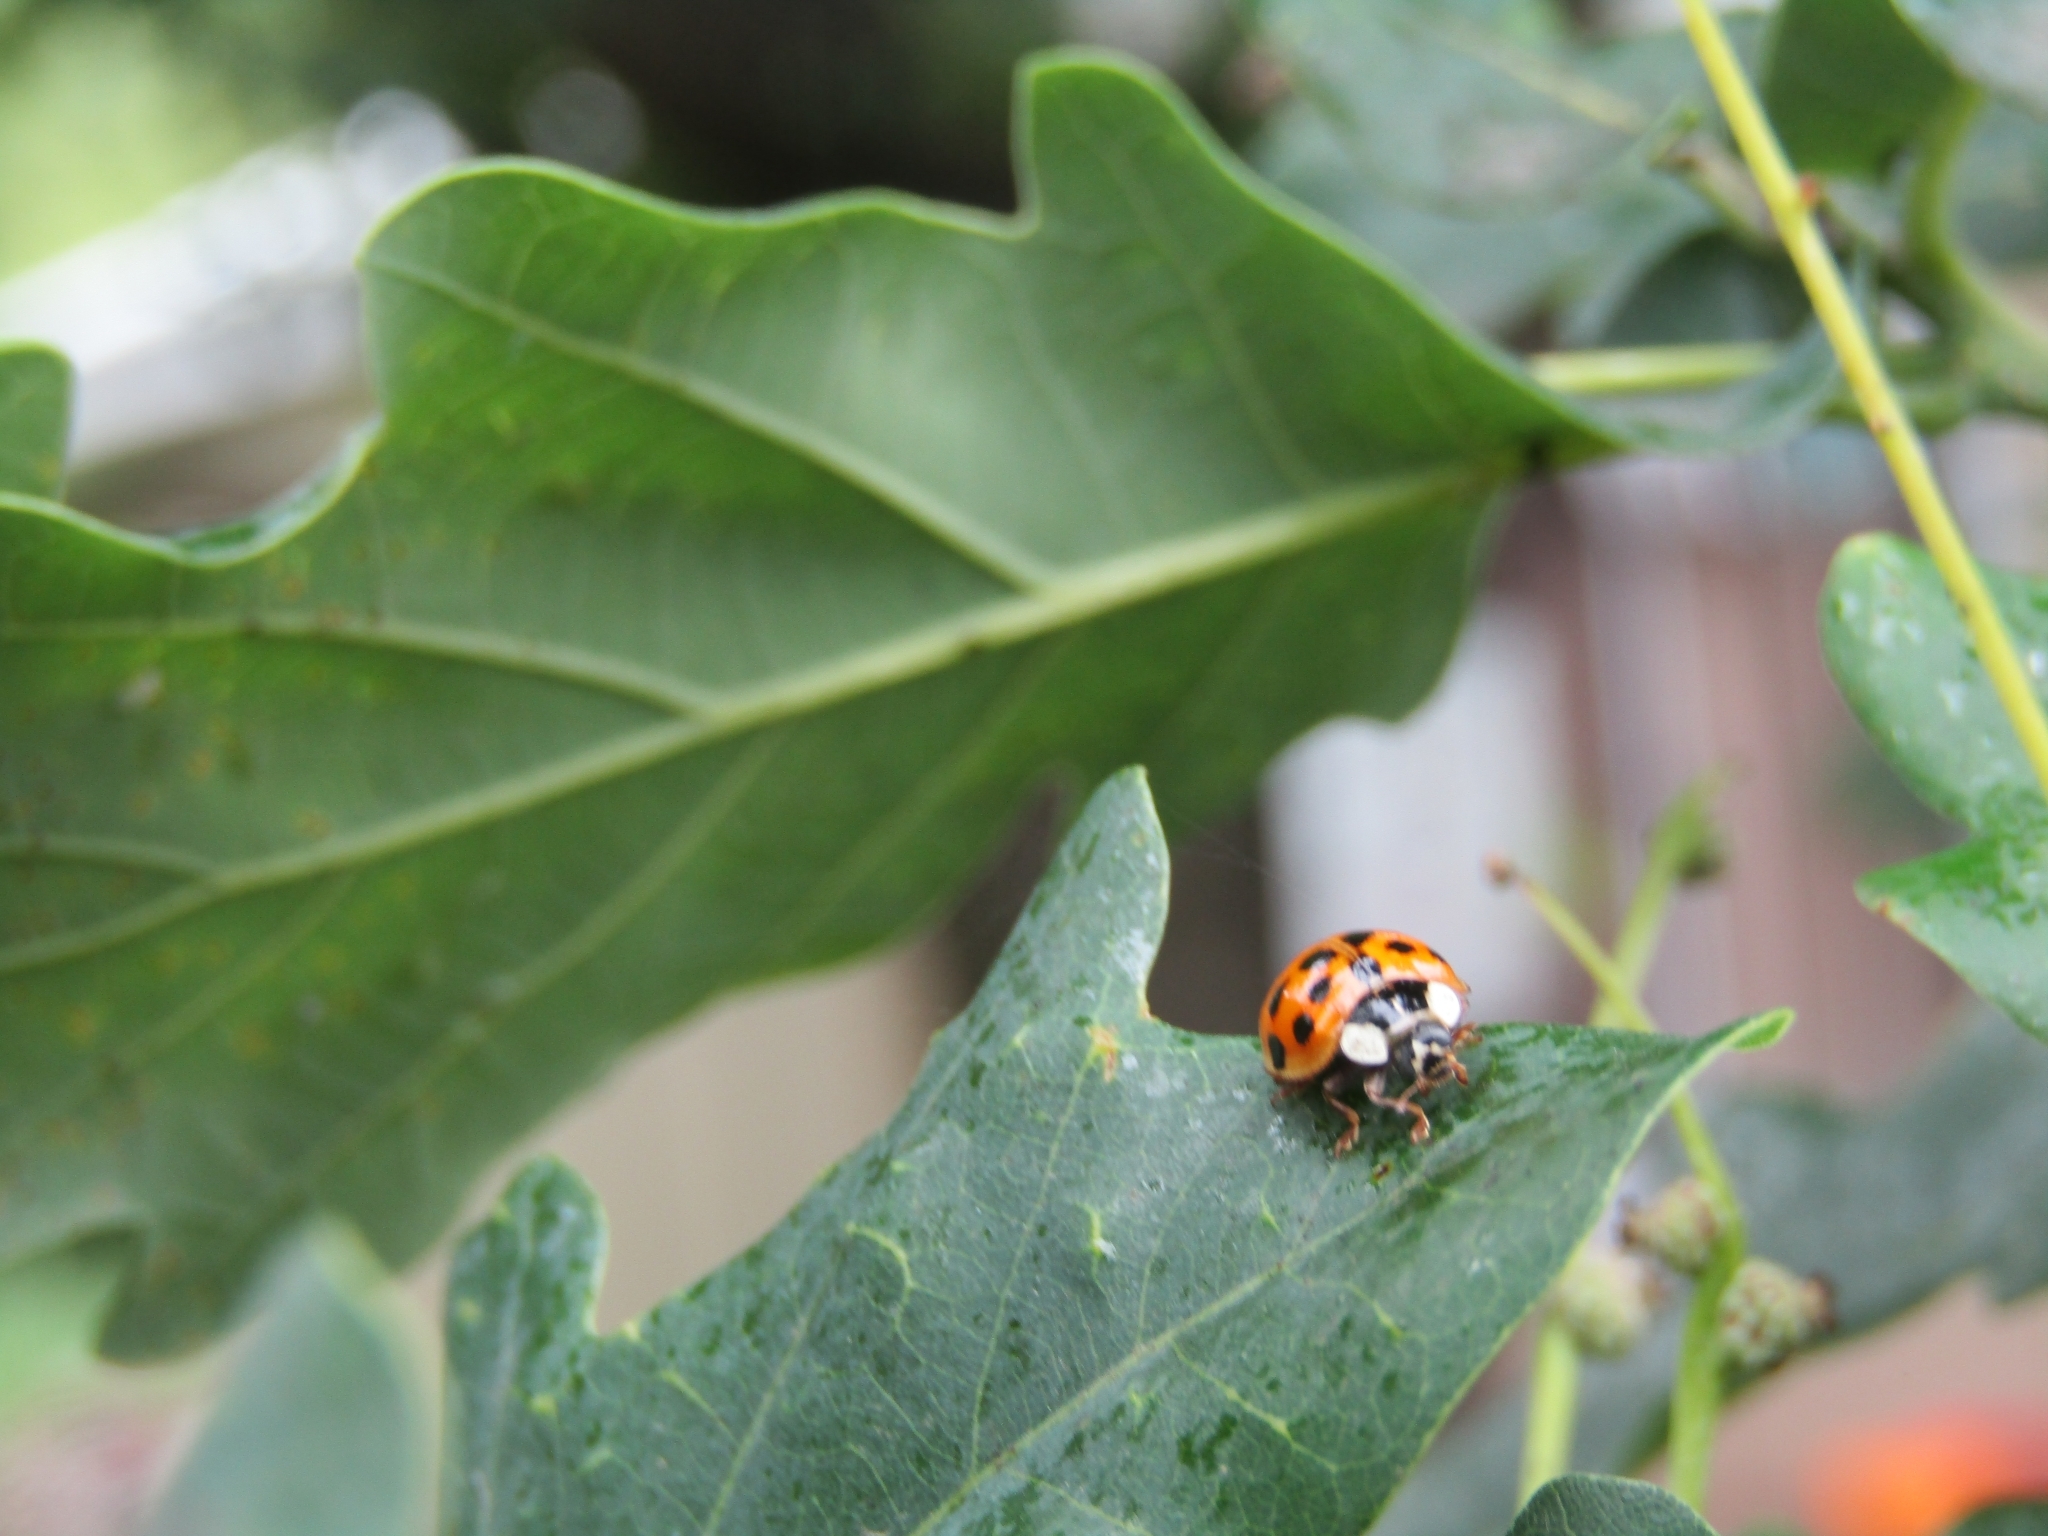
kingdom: Animalia
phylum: Arthropoda
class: Insecta
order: Coleoptera
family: Coccinellidae
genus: Harmonia
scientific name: Harmonia axyridis
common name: Harlequin ladybird
